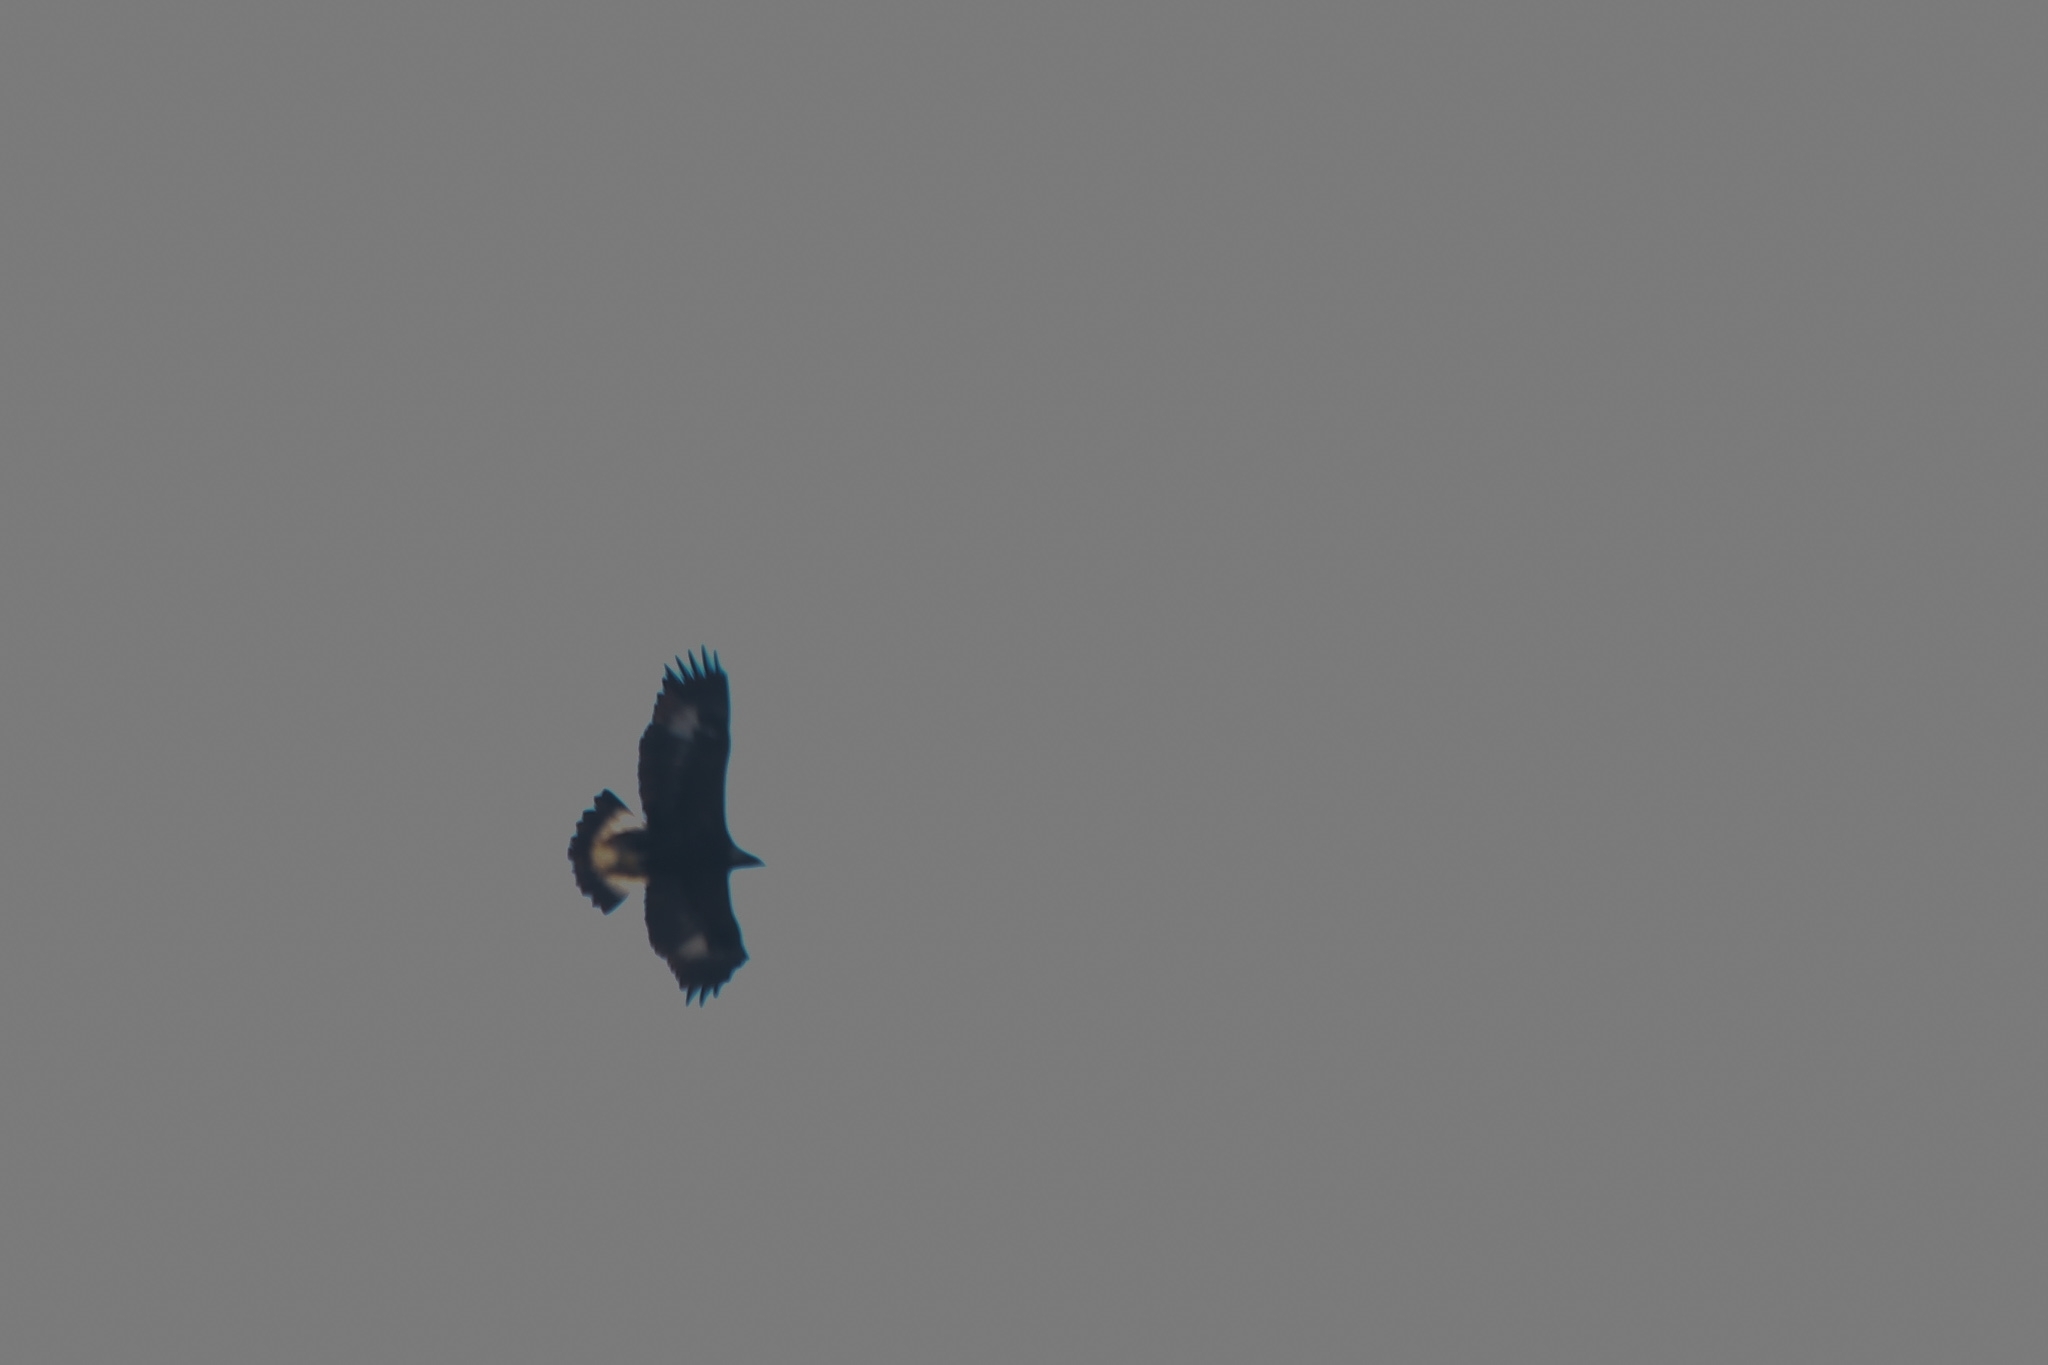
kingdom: Animalia
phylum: Chordata
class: Aves
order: Accipitriformes
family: Accipitridae
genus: Aquila
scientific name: Aquila chrysaetos
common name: Golden eagle
